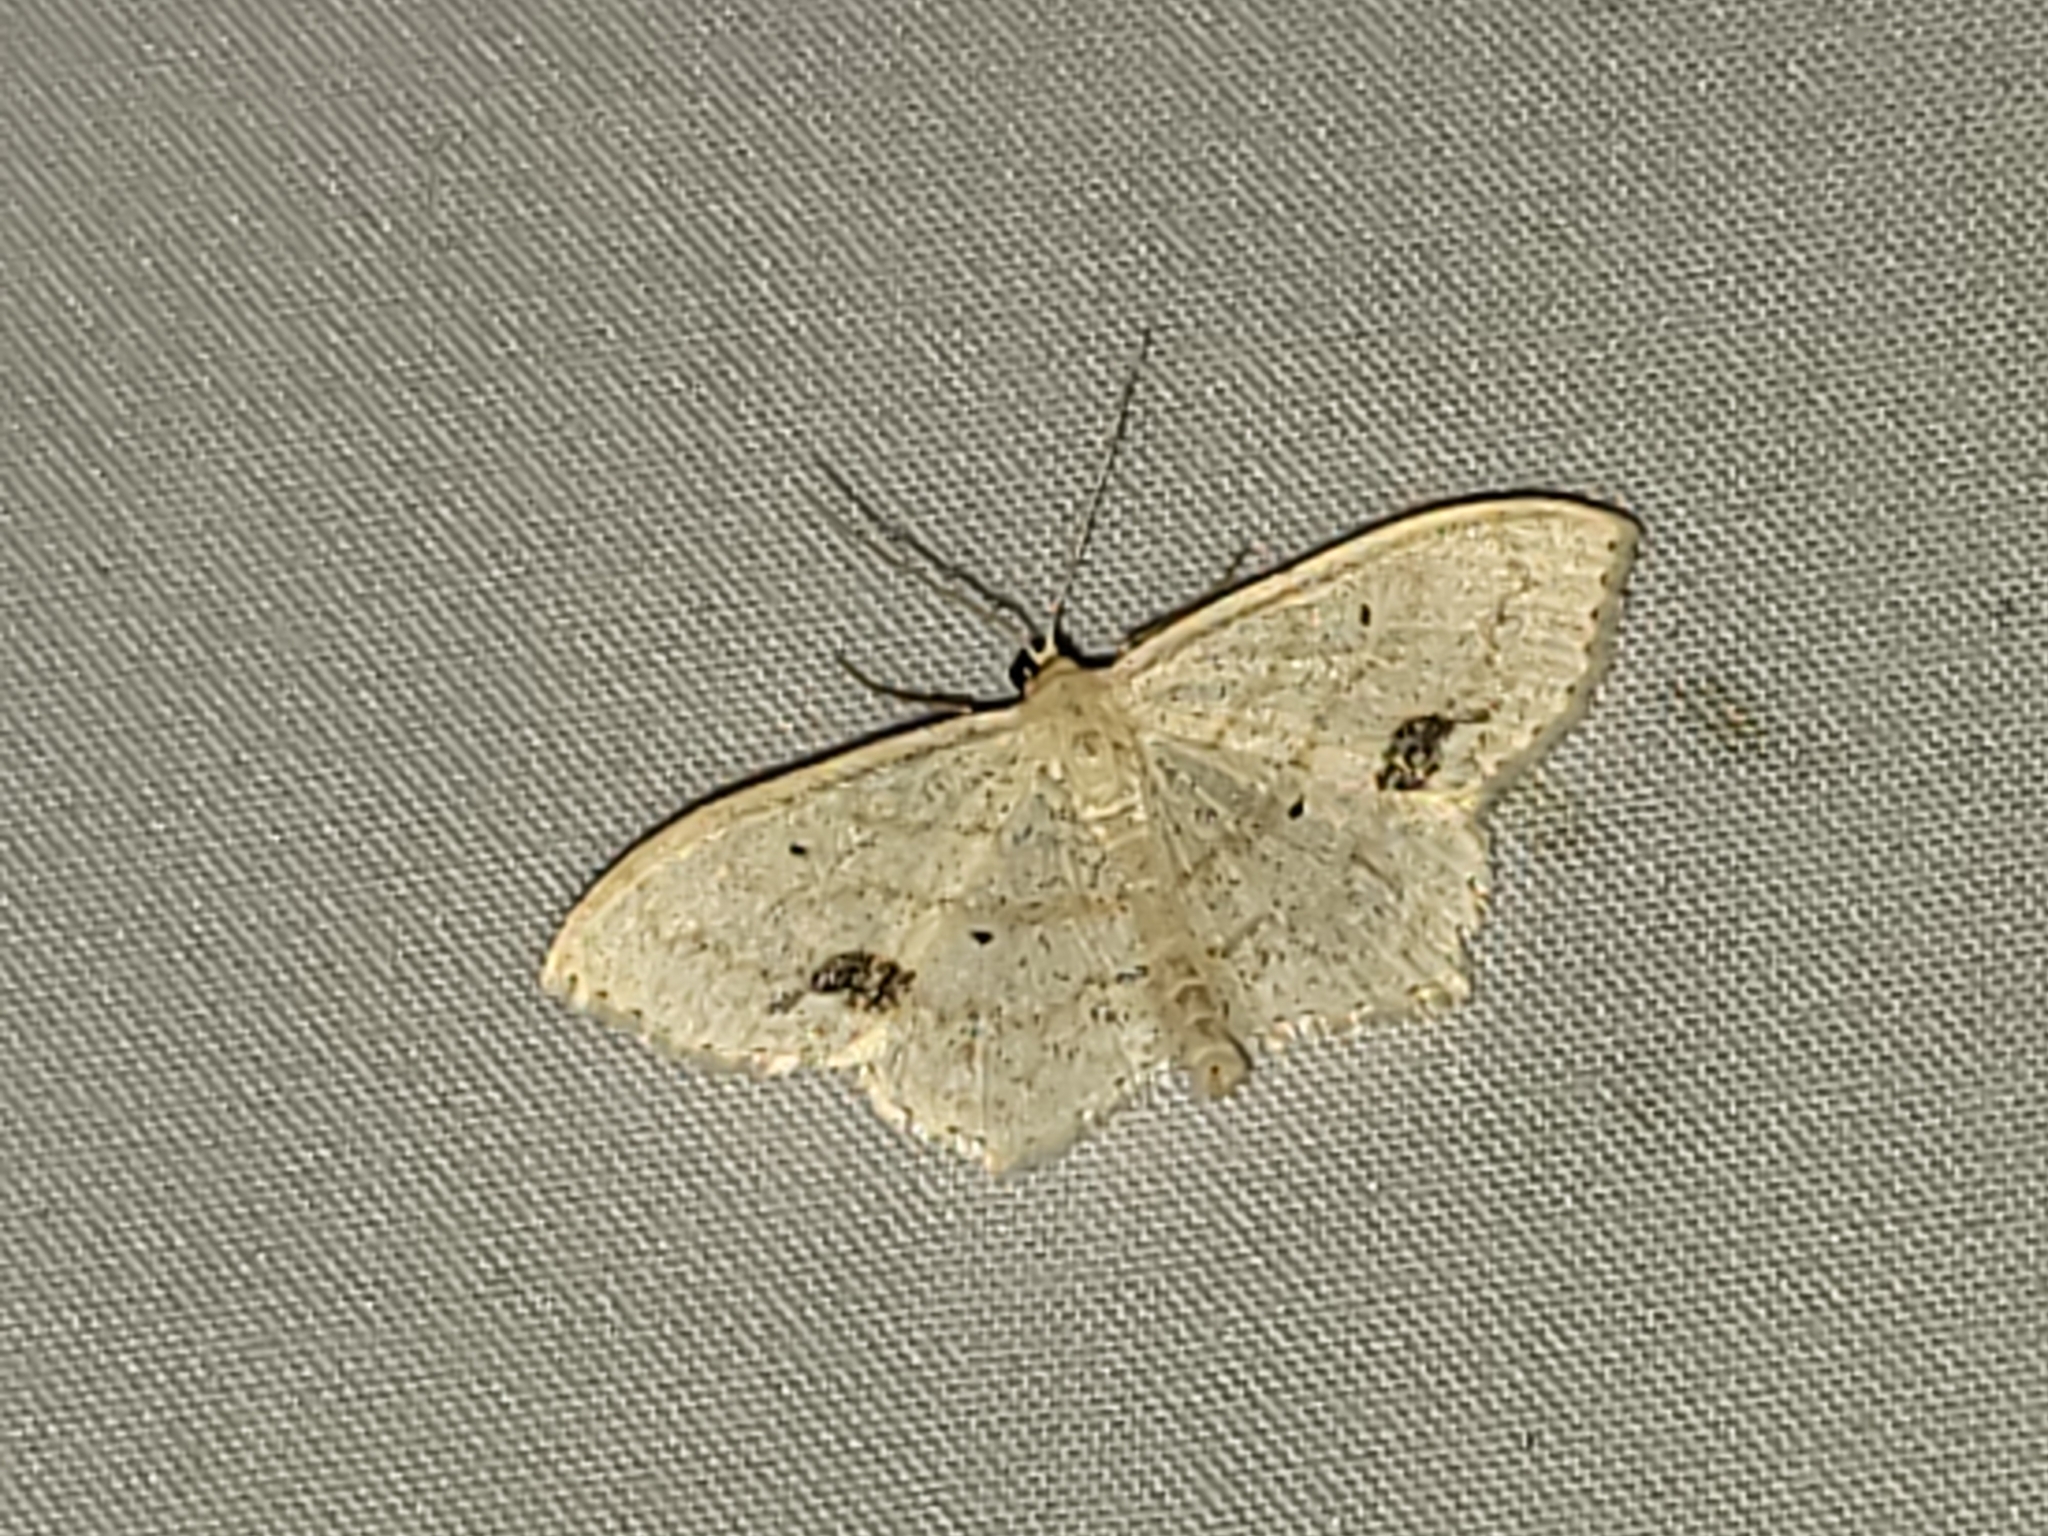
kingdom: Animalia
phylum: Arthropoda
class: Insecta
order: Lepidoptera
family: Geometridae
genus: Scopula
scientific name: Scopula limboundata
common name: Large lace border
